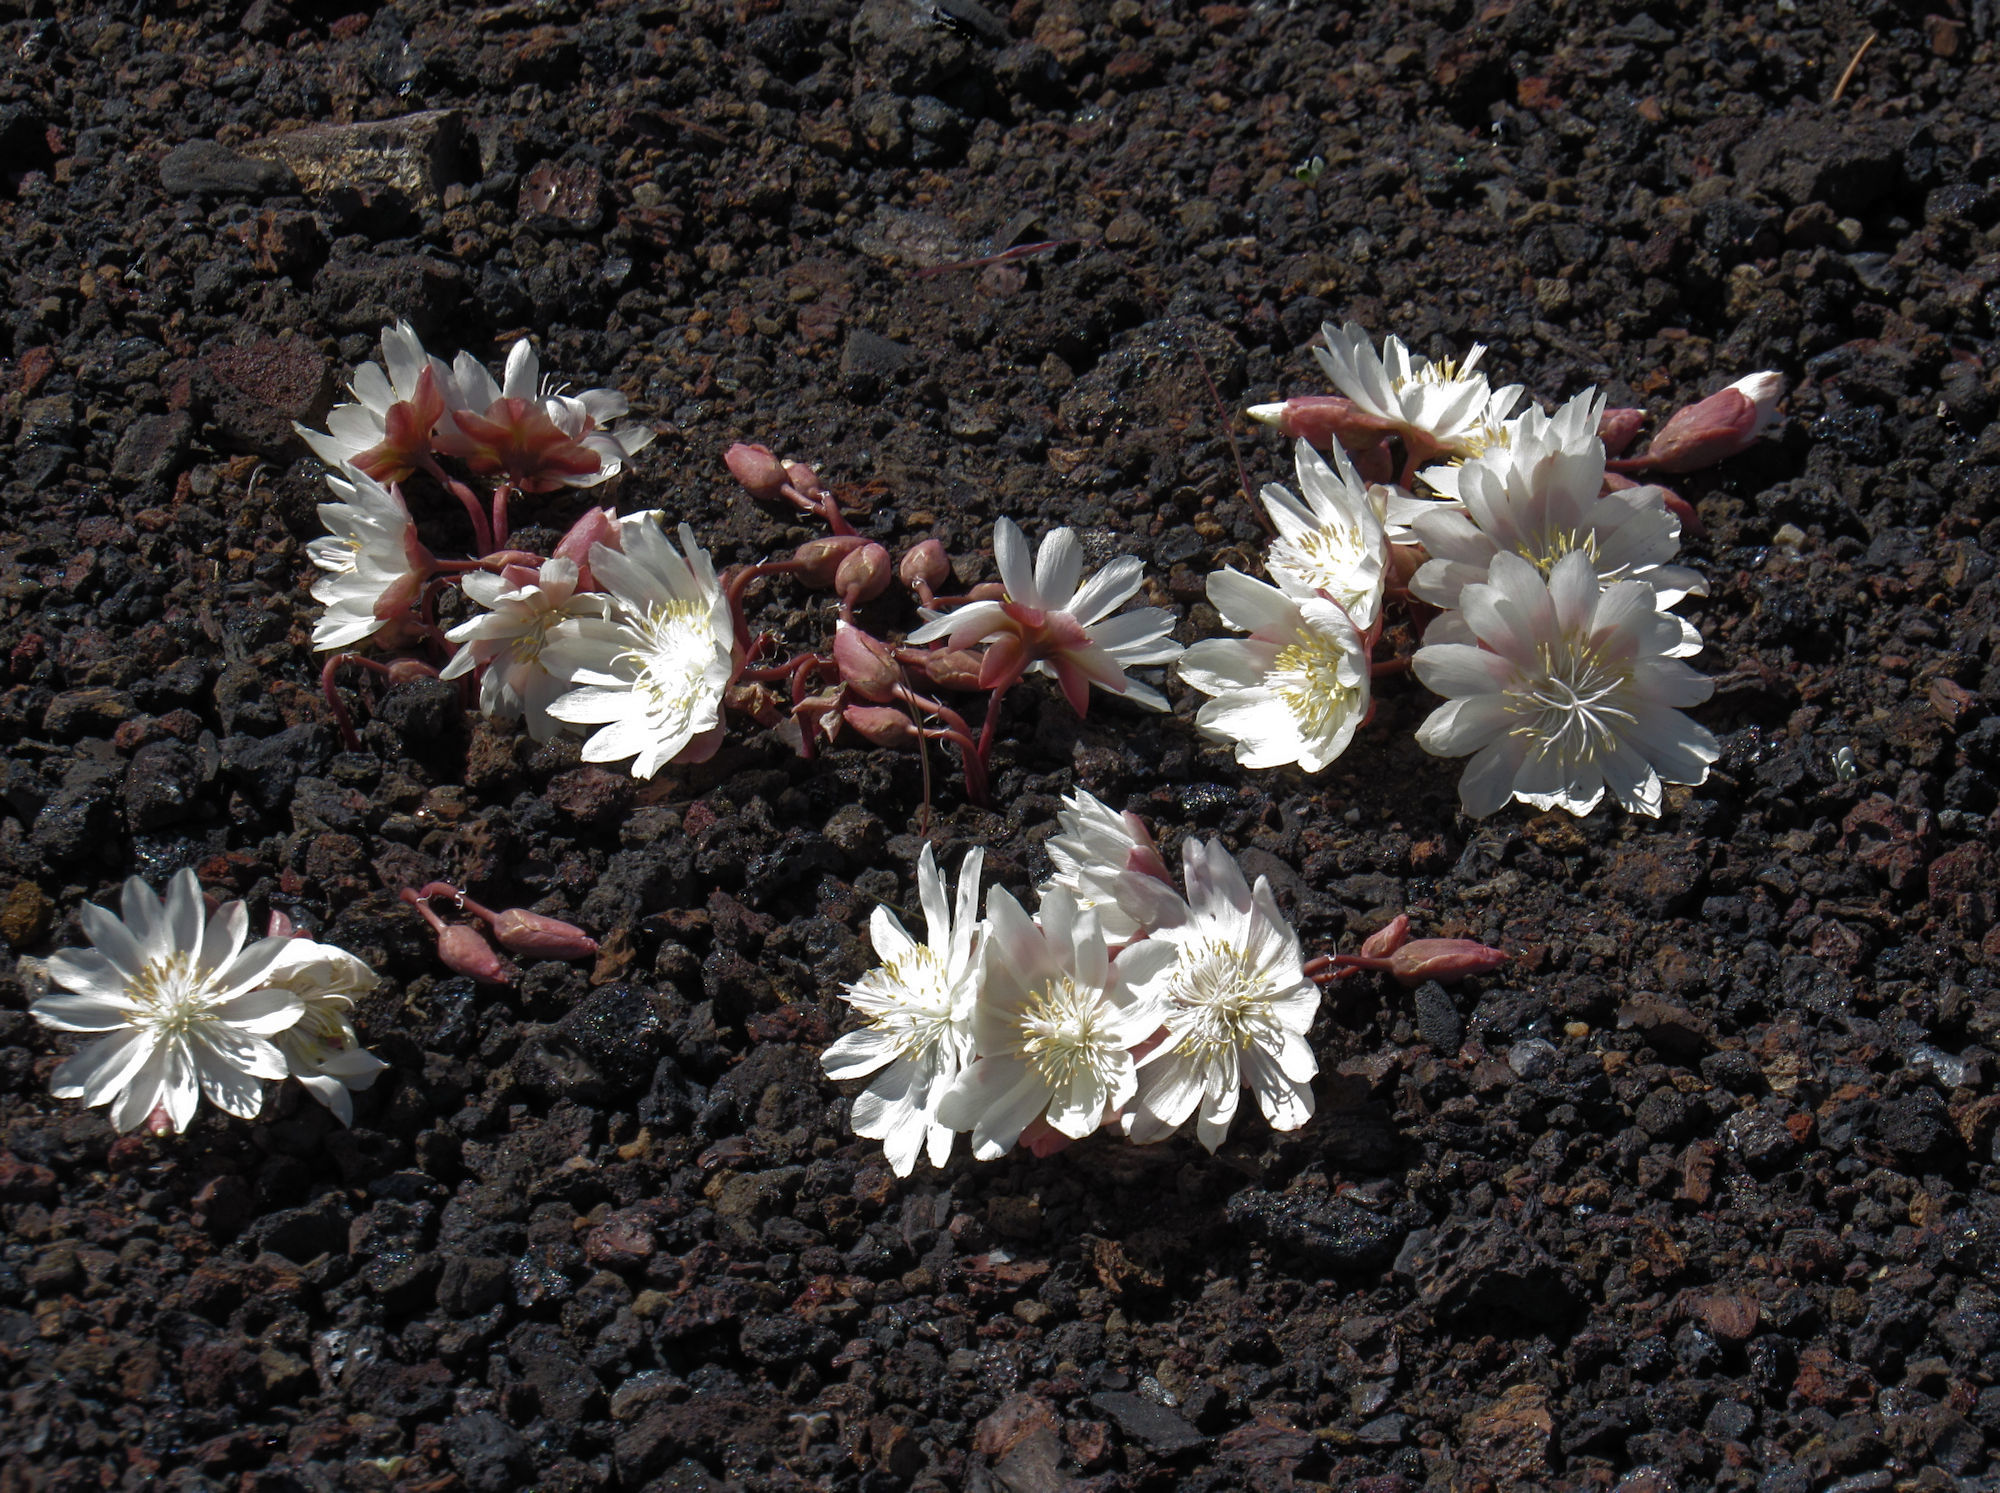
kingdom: Plantae
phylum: Tracheophyta
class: Magnoliopsida
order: Caryophyllales
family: Montiaceae
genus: Lewisia
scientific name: Lewisia rediviva
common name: Bitter-root
